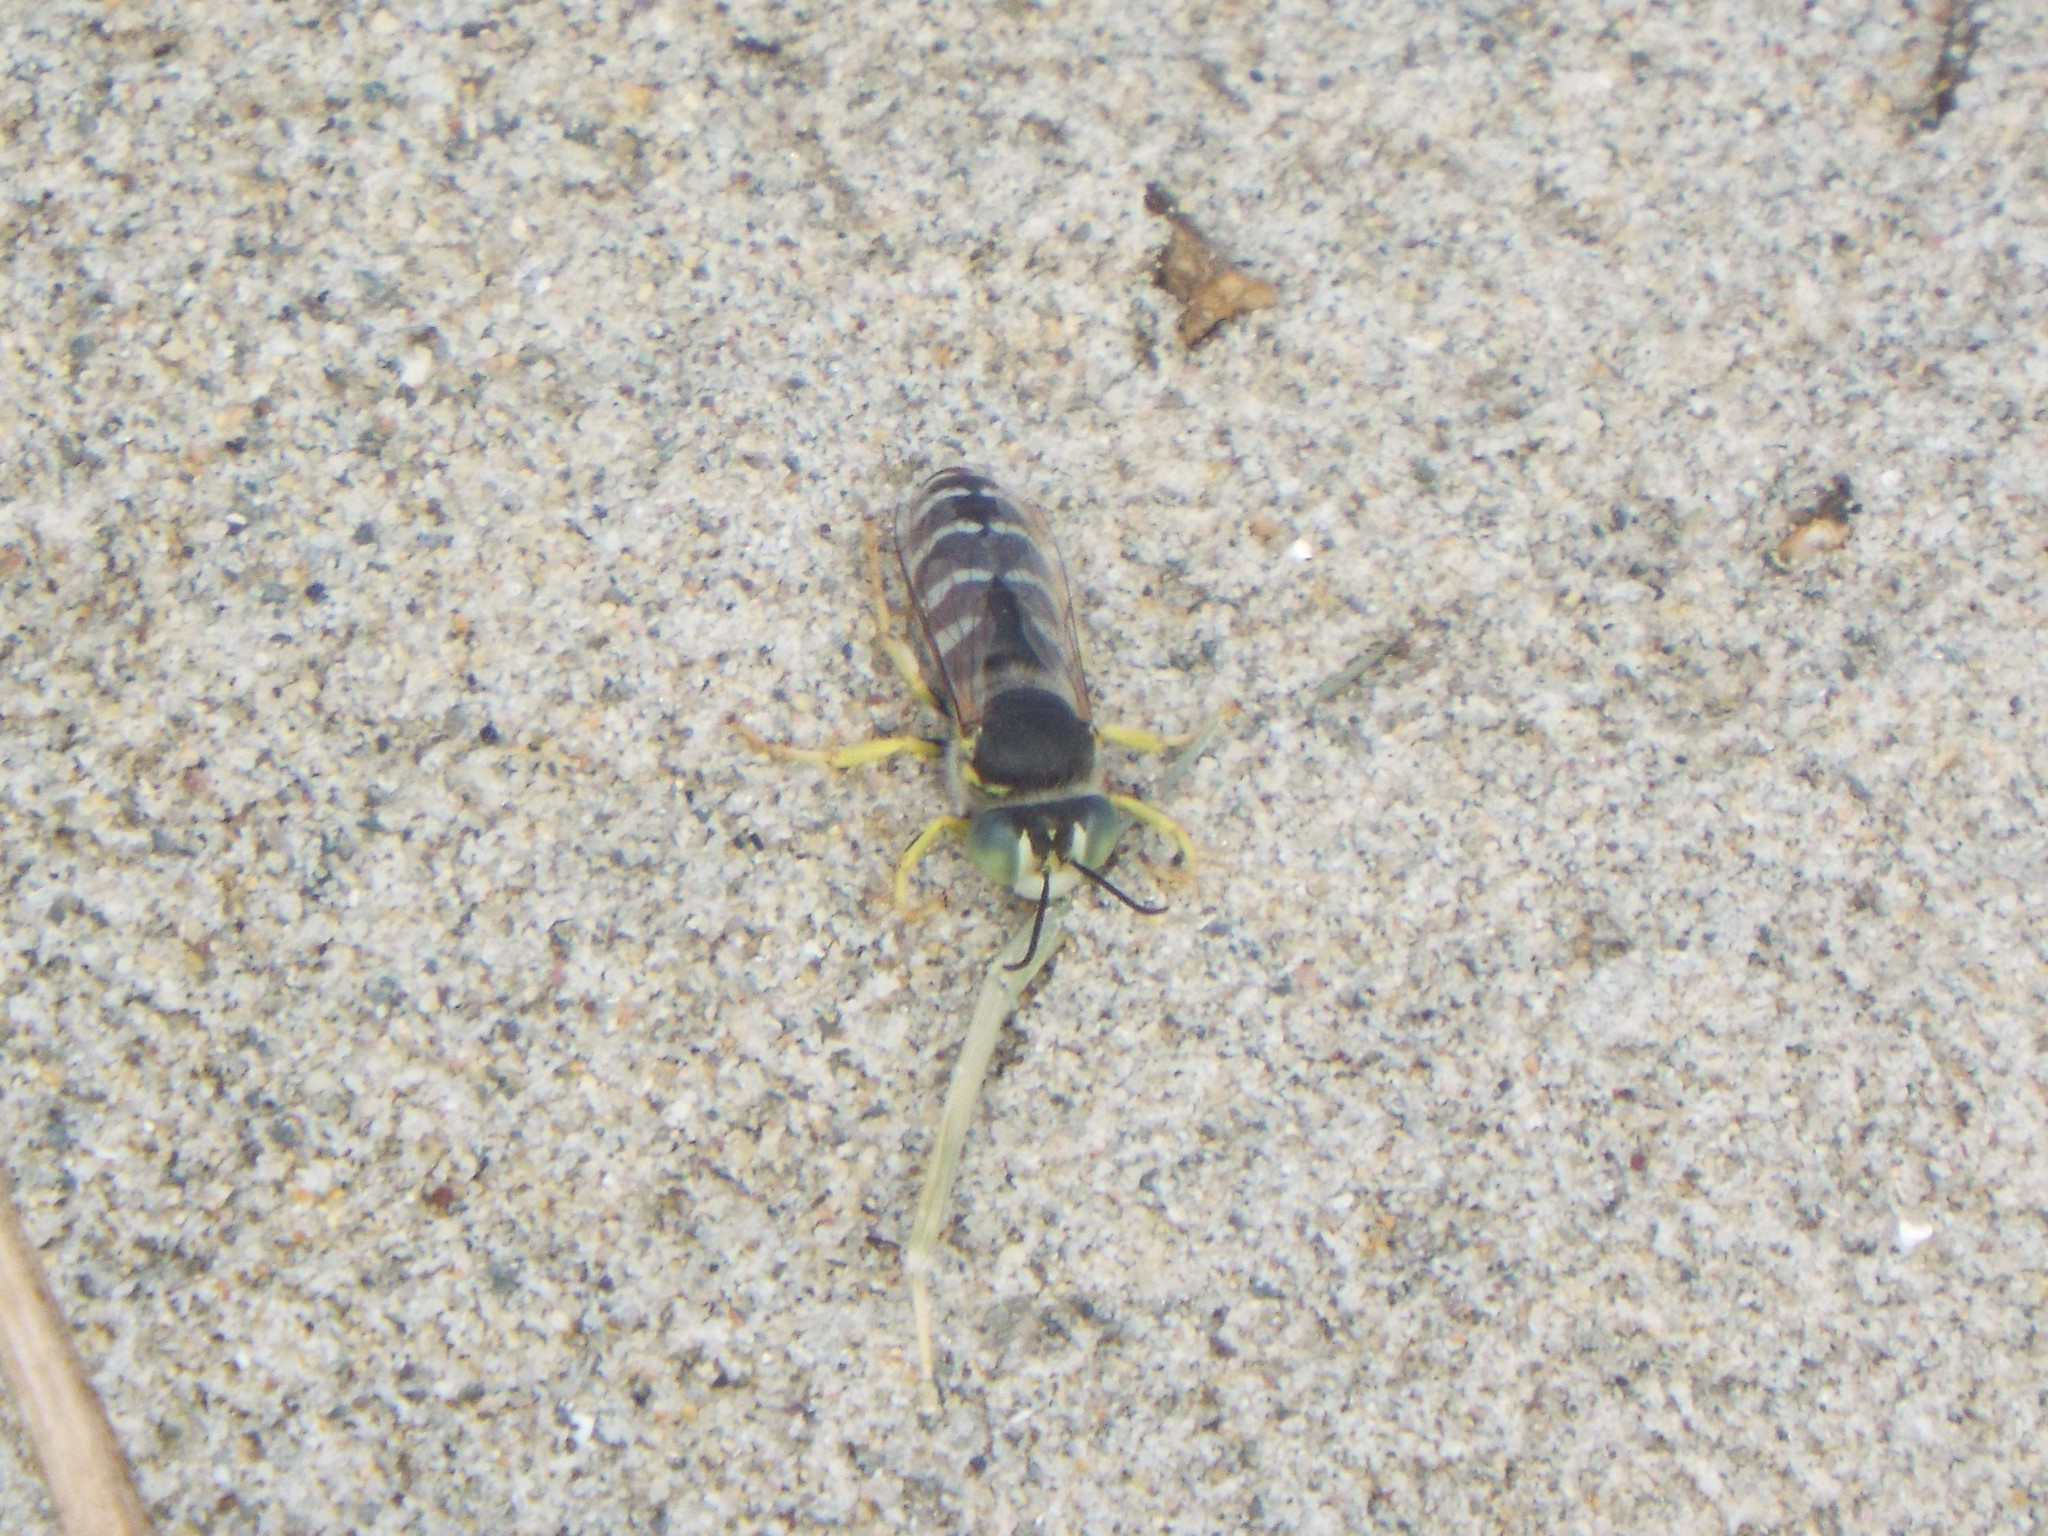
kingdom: Animalia
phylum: Arthropoda
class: Insecta
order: Hymenoptera
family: Crabronidae
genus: Bembix
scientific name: Bembix americana
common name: American sand wasp
